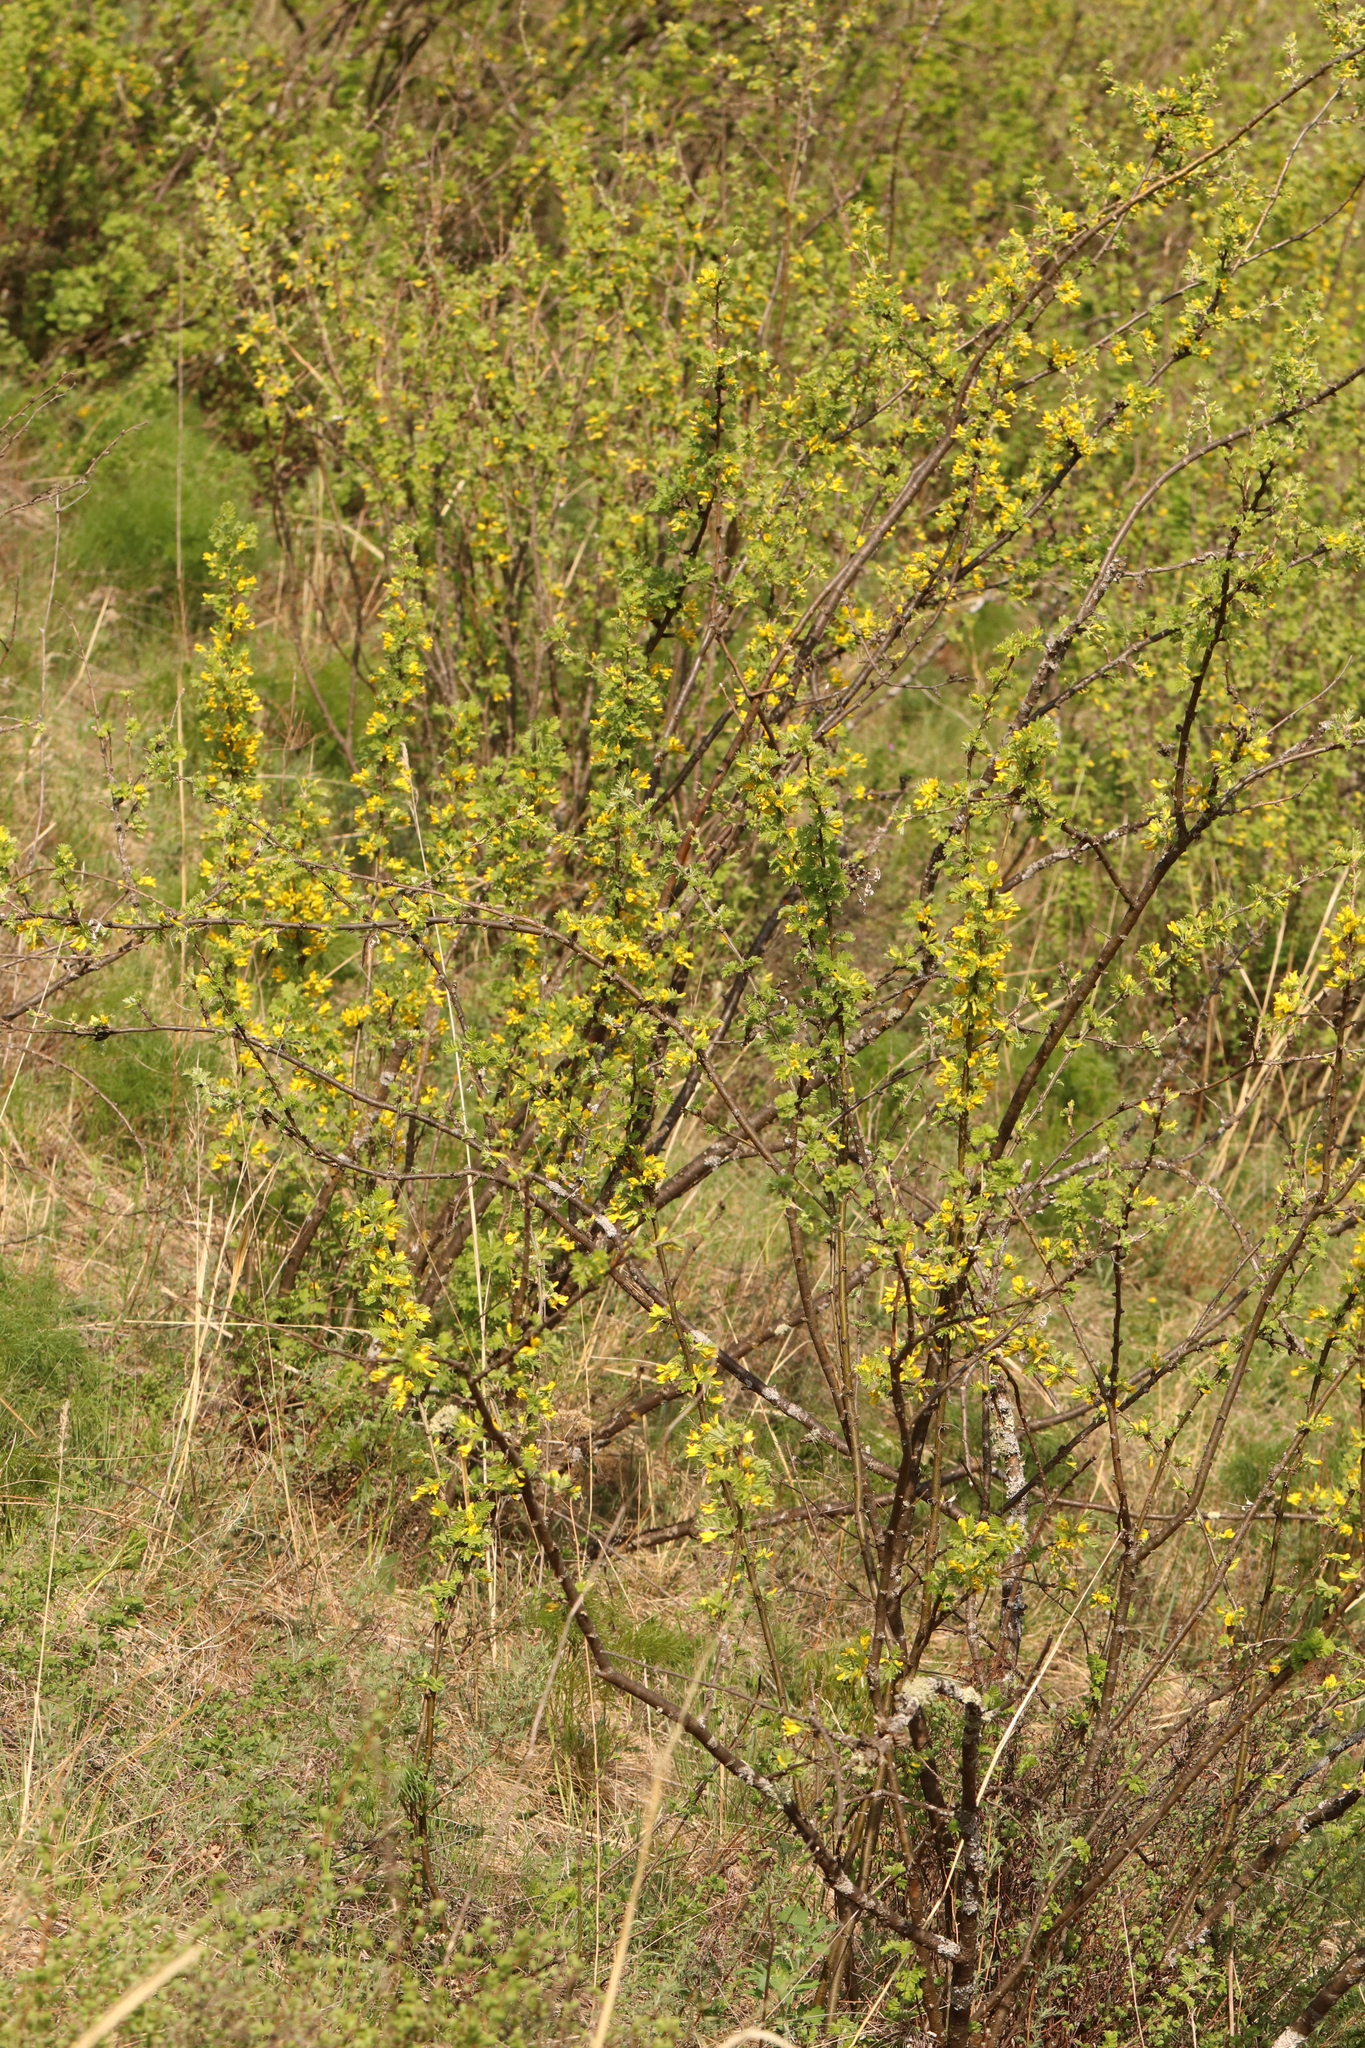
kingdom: Plantae
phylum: Tracheophyta
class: Magnoliopsida
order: Fabales
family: Fabaceae
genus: Caragana
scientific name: Caragana arborescens
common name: Siberian peashrub
